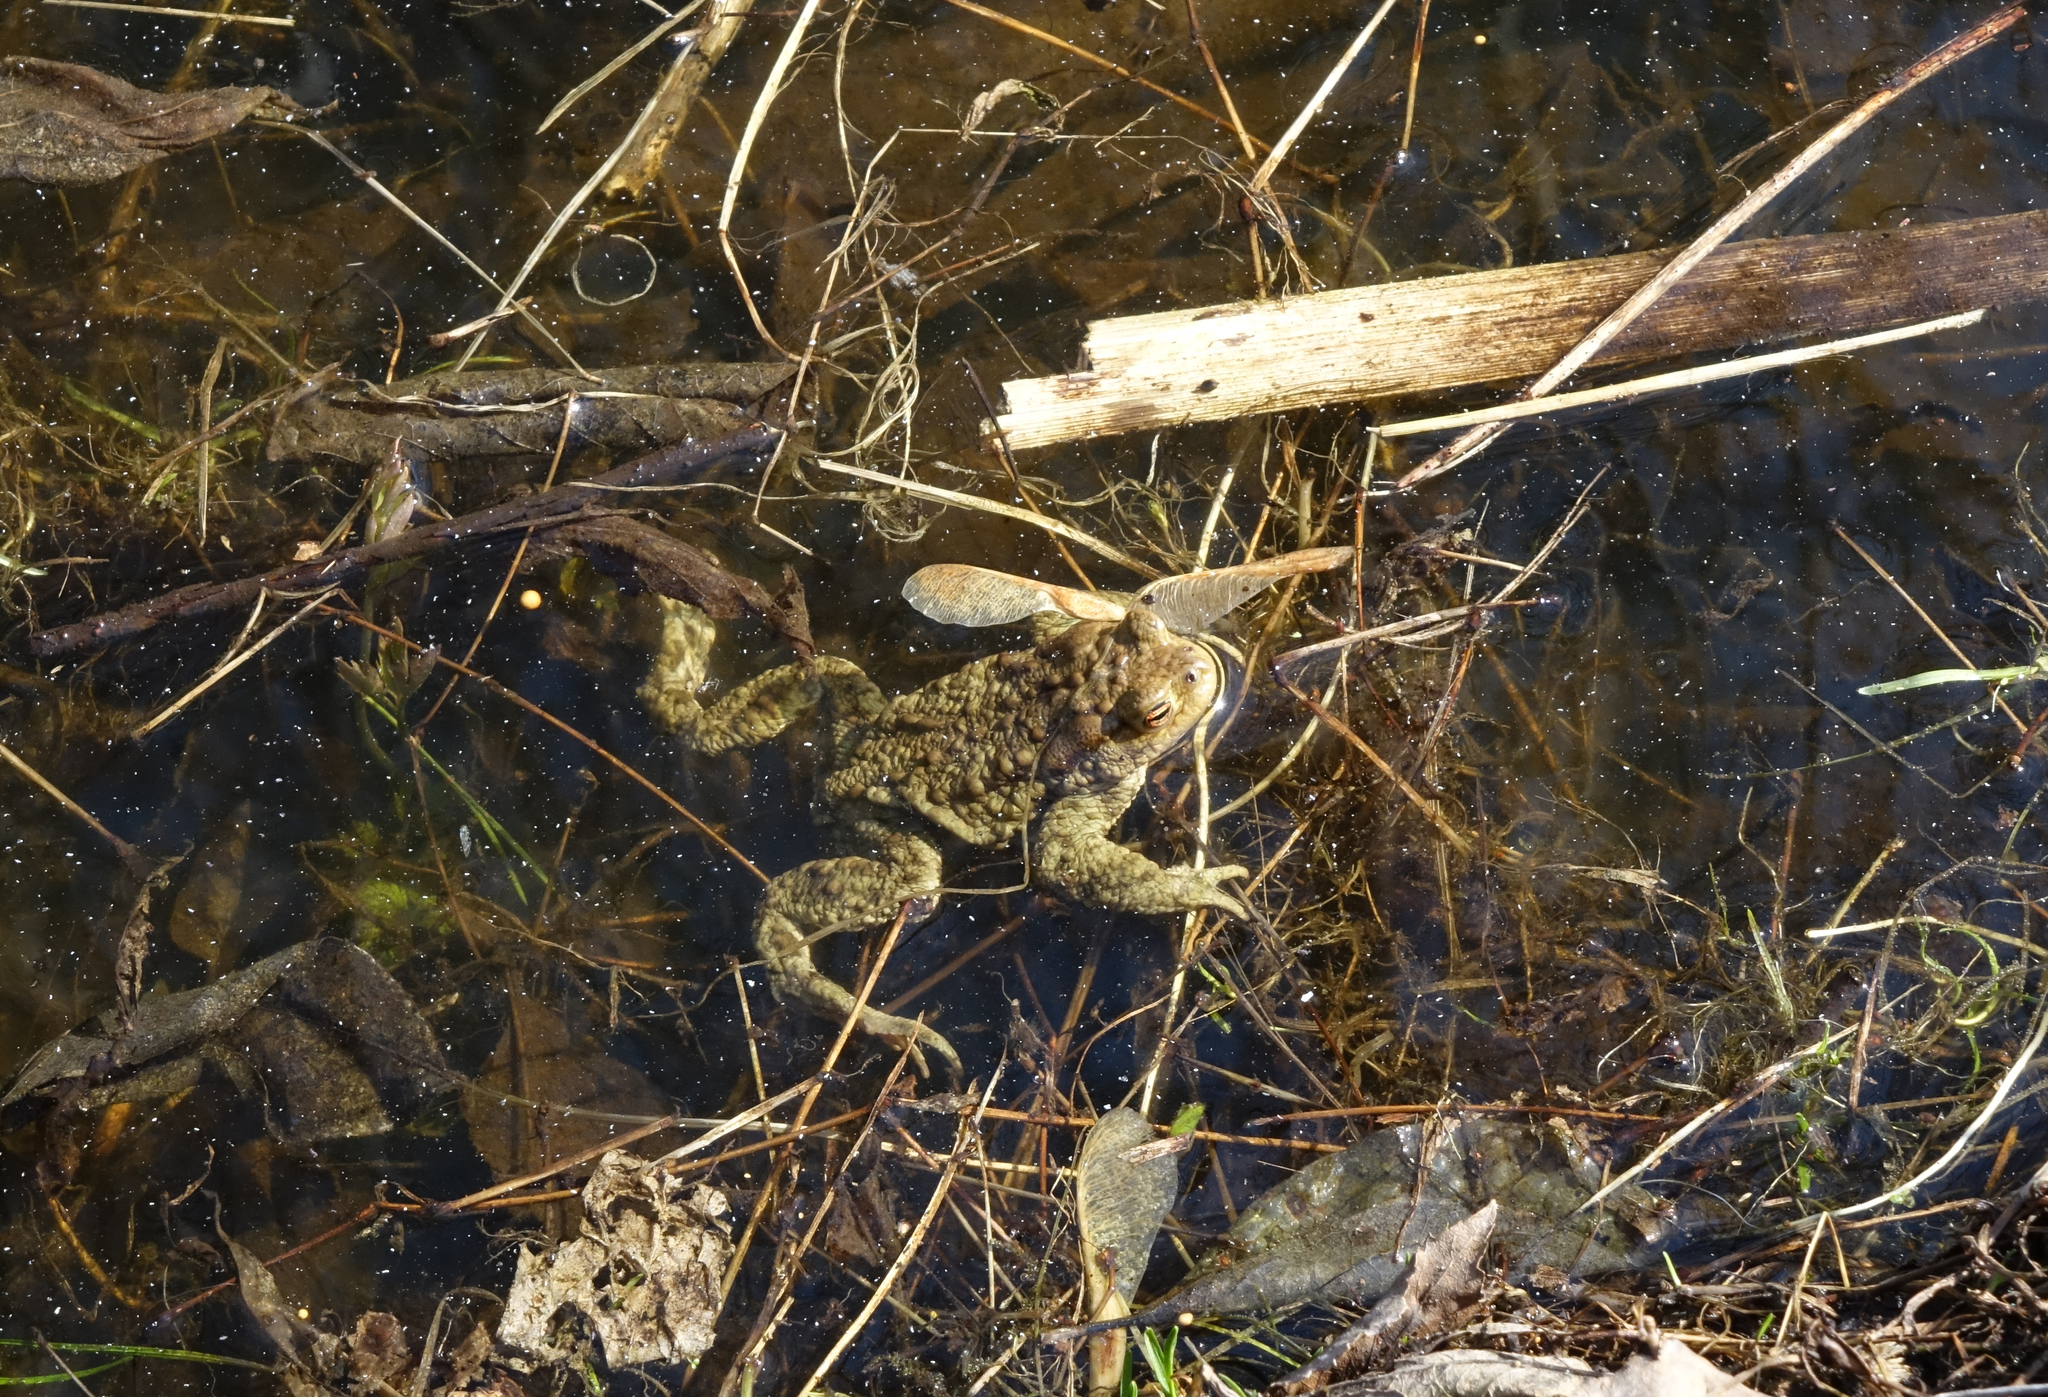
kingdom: Animalia
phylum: Chordata
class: Amphibia
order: Anura
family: Bufonidae
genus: Bufo
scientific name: Bufo bufo
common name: Common toad
